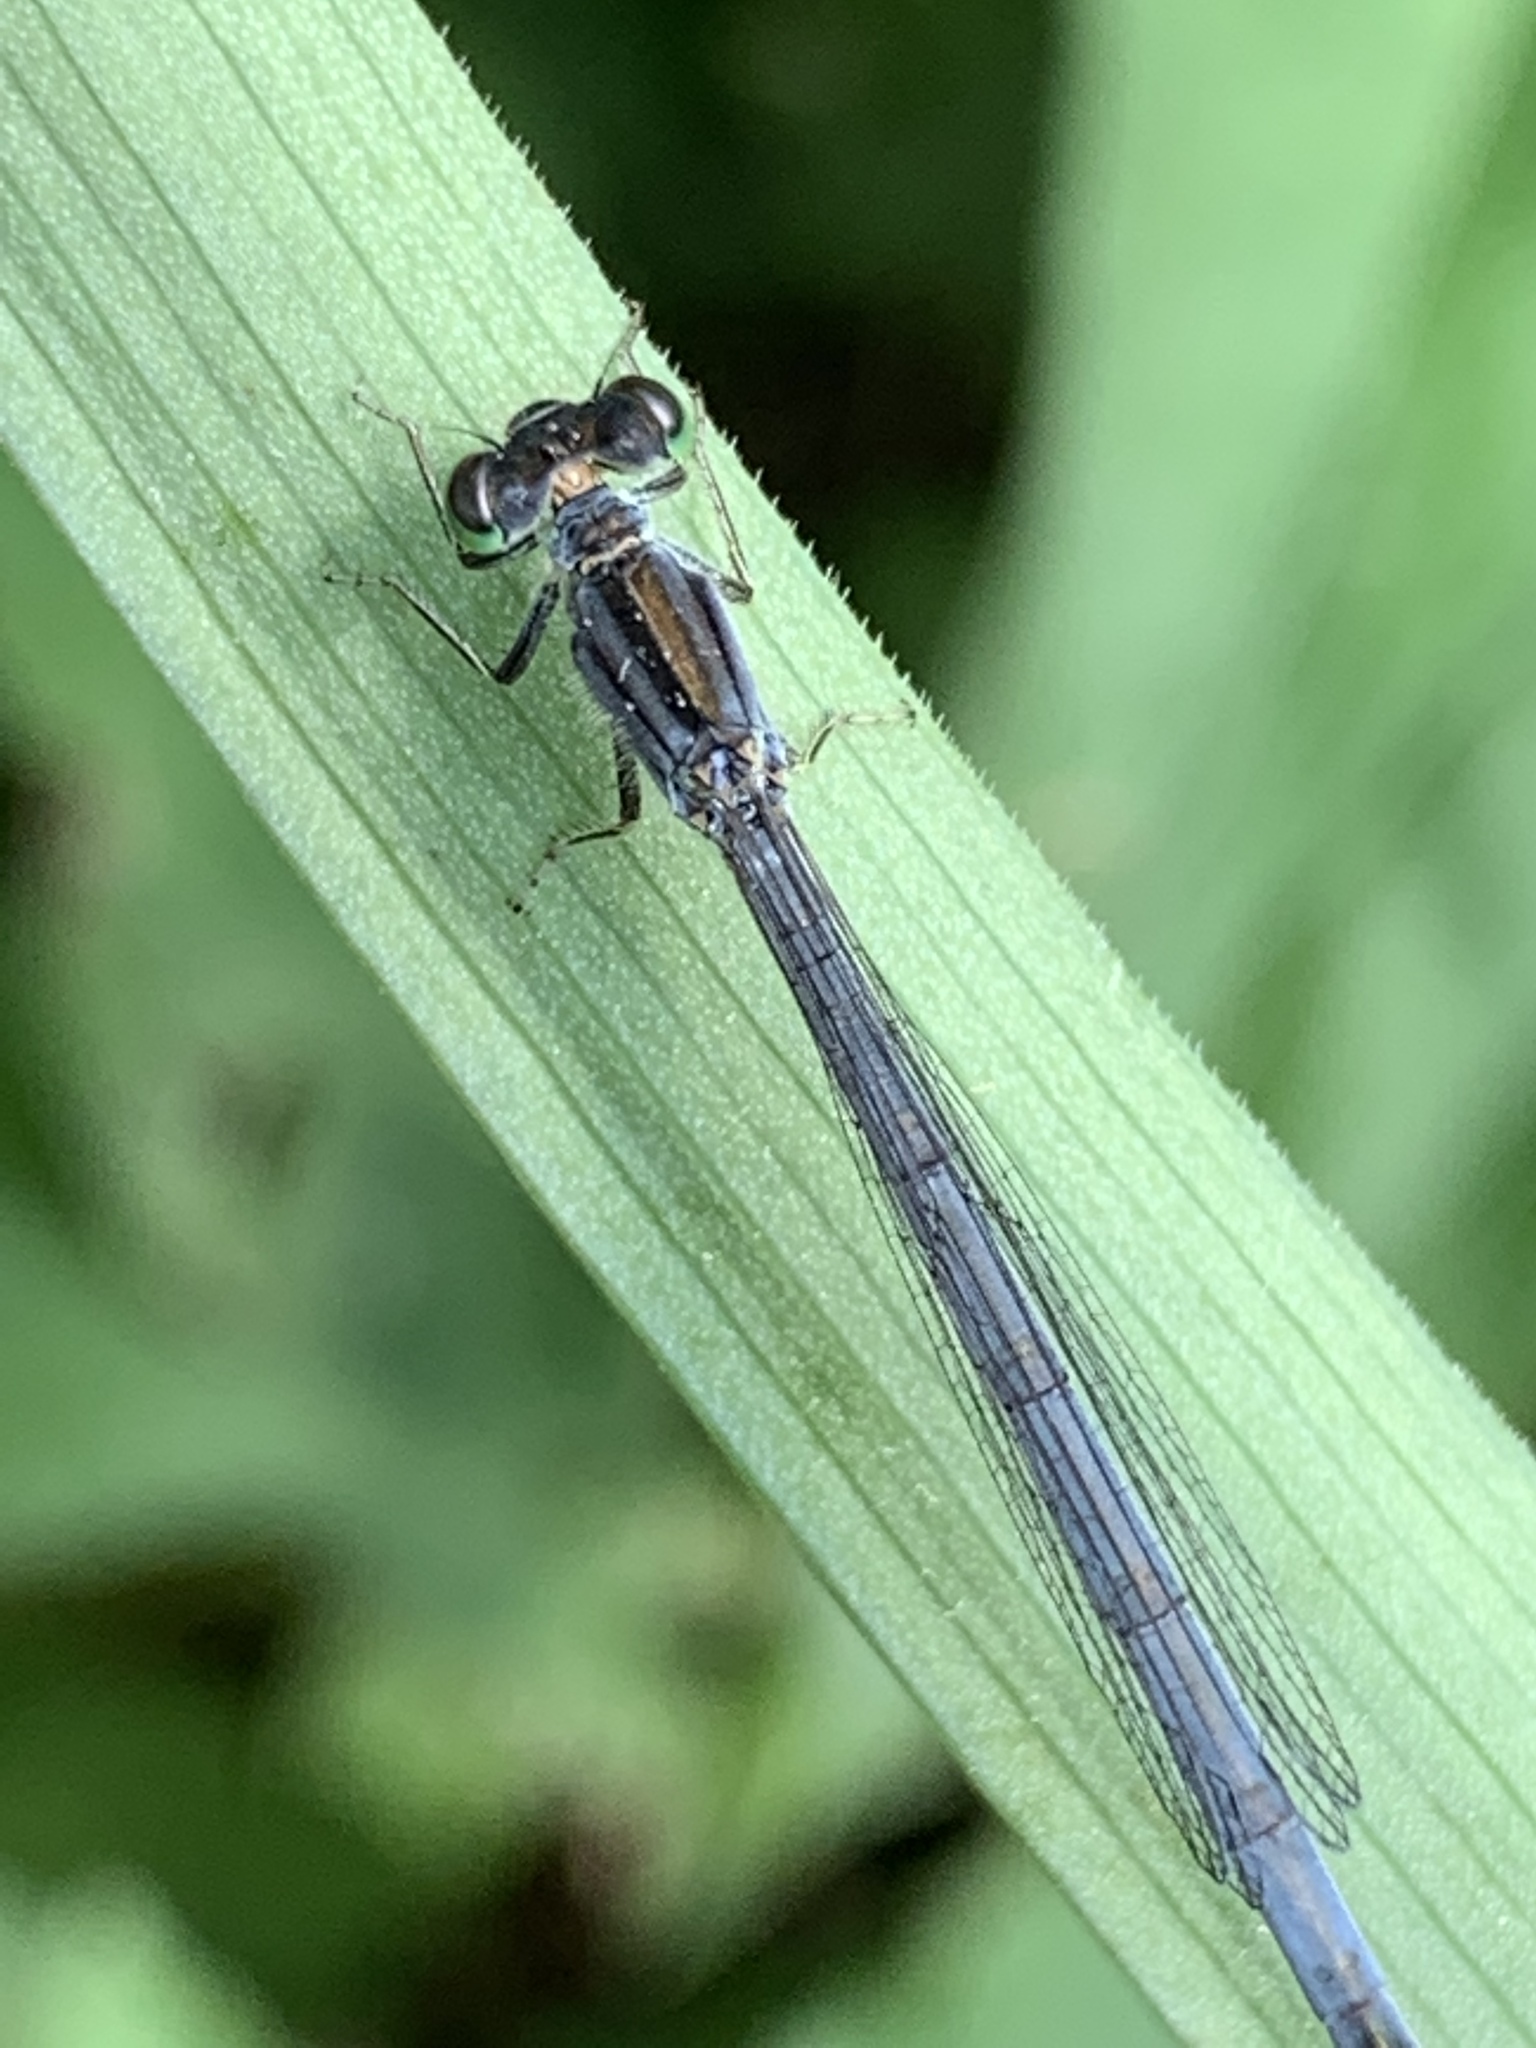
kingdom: Animalia
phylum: Arthropoda
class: Insecta
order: Odonata
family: Coenagrionidae
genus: Ischnura
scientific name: Ischnura verticalis
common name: Eastern forktail
